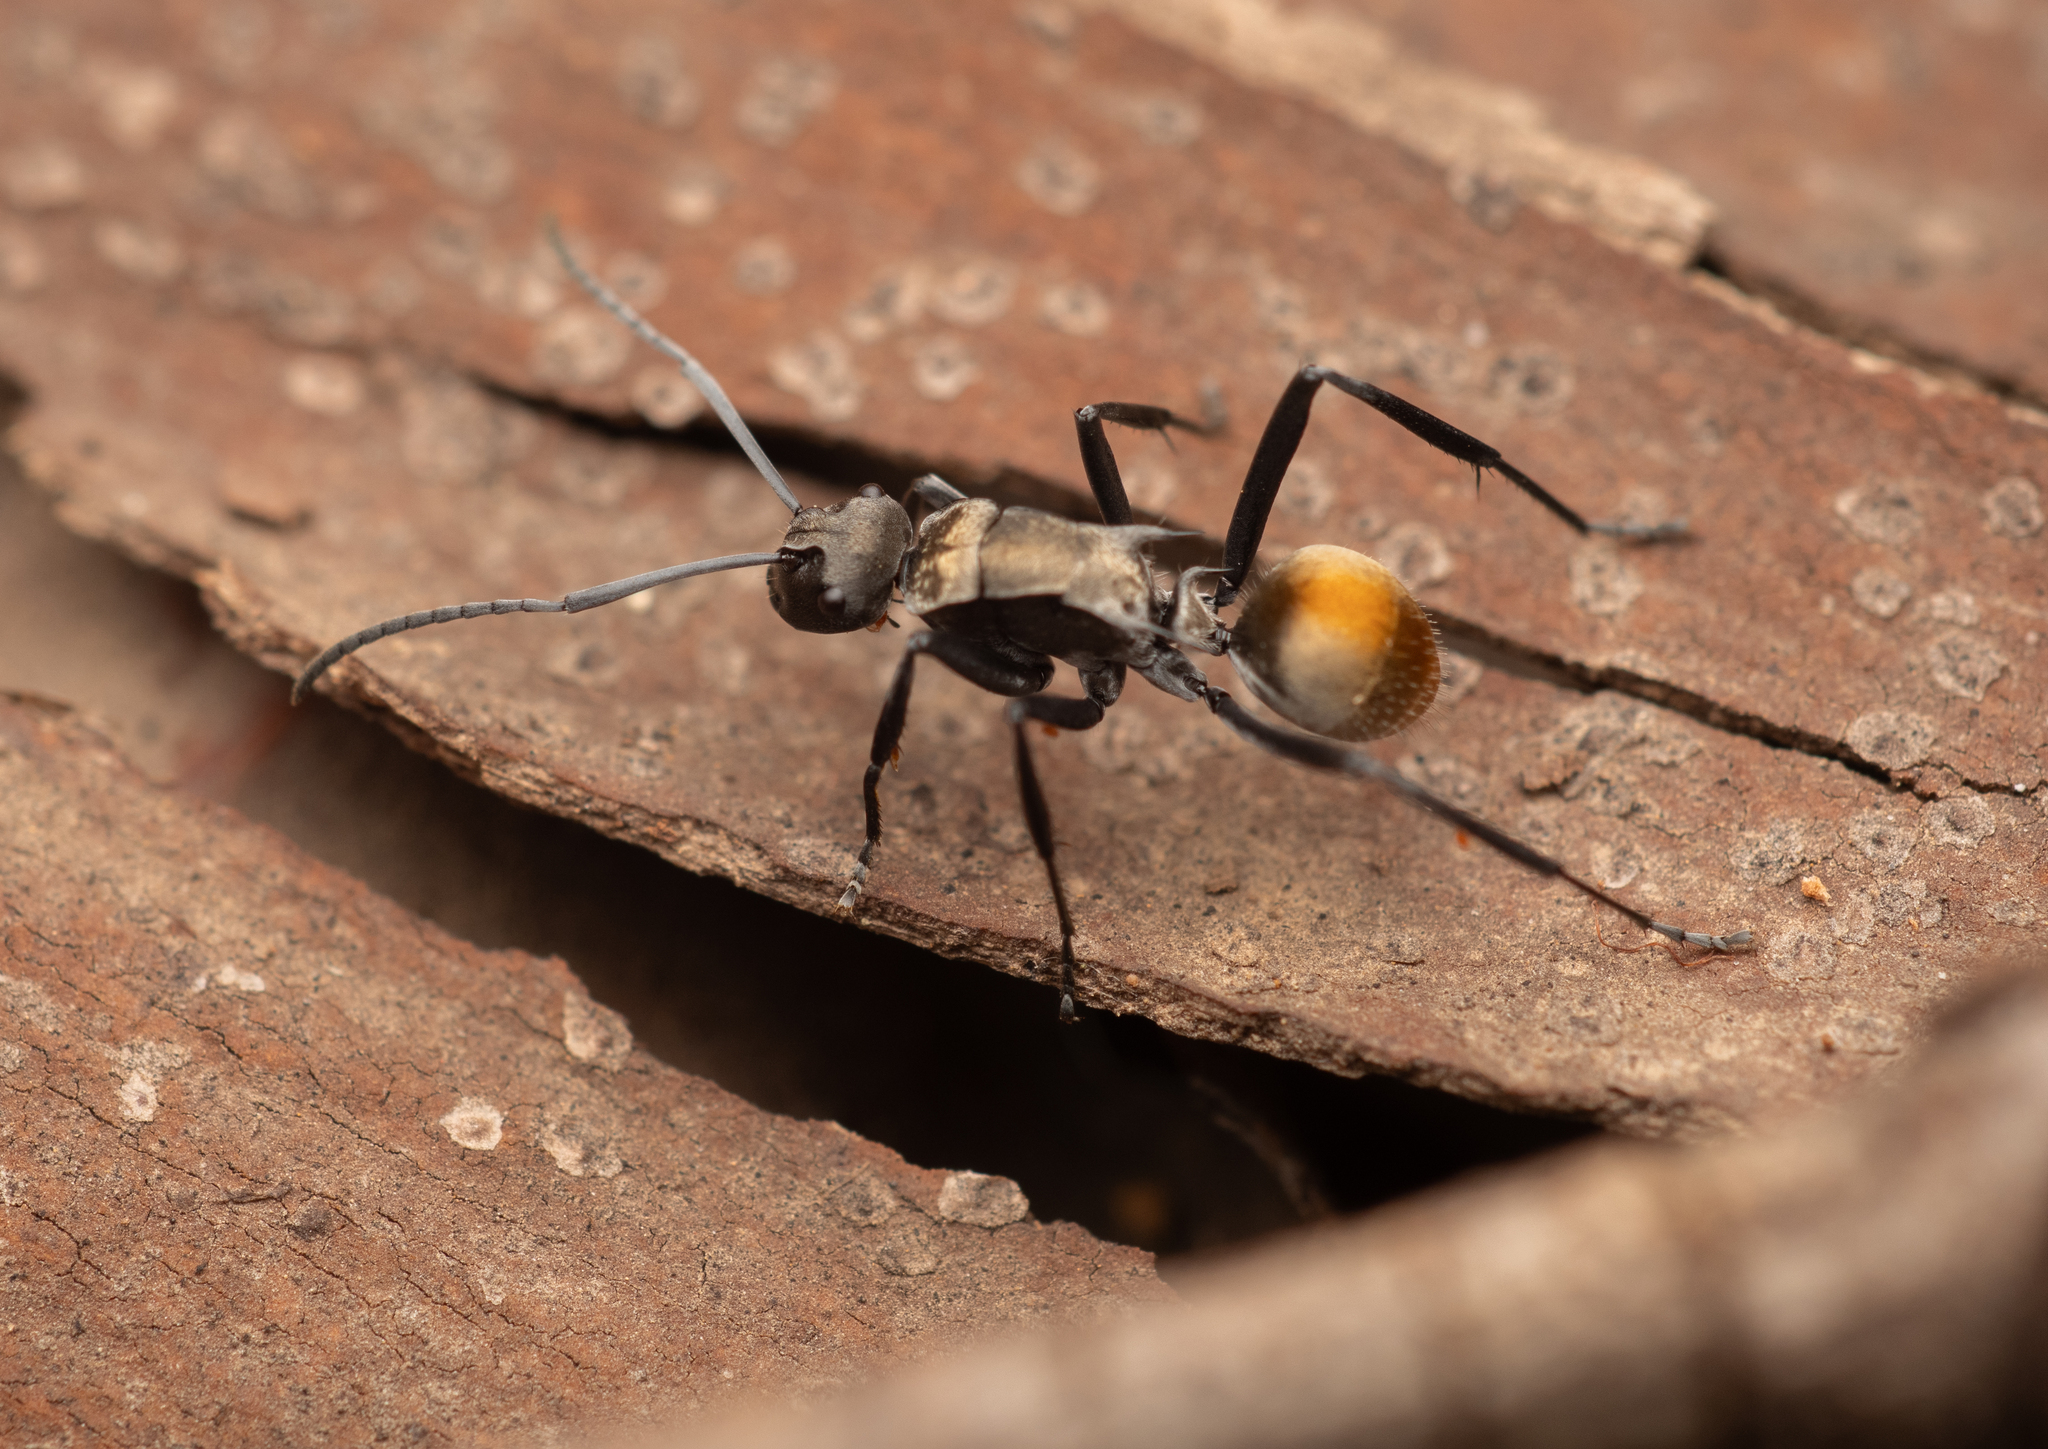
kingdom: Animalia
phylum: Arthropoda
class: Insecta
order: Hymenoptera
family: Formicidae
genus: Polyrhachis
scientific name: Polyrhachis ammon
